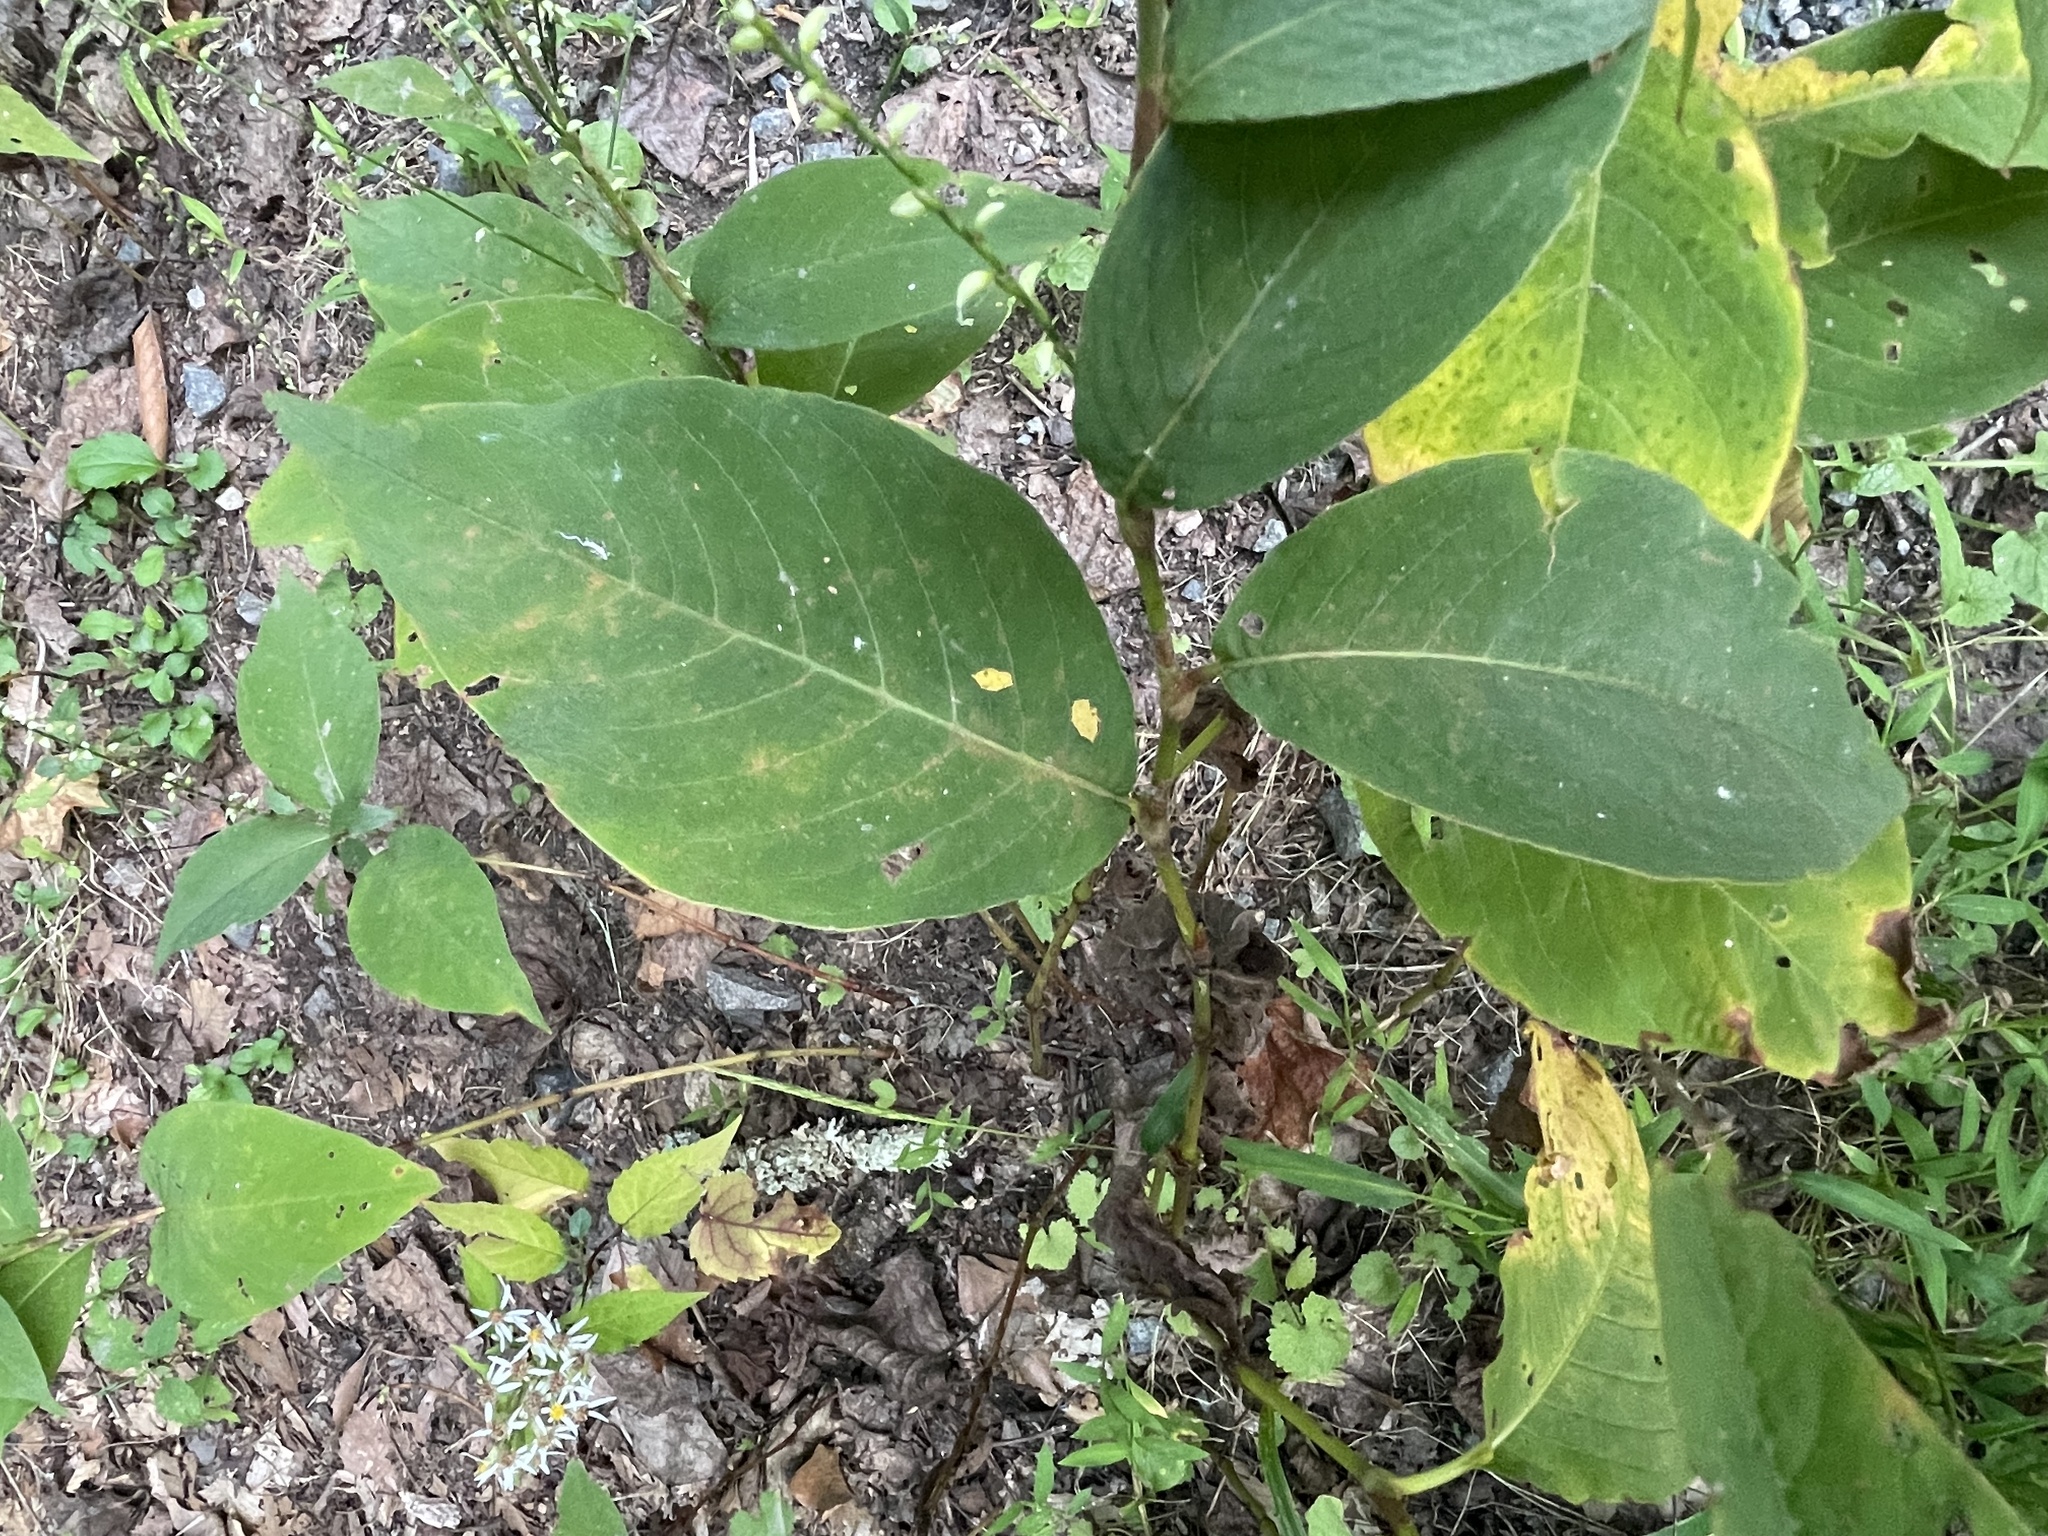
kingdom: Plantae
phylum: Tracheophyta
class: Magnoliopsida
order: Caryophyllales
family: Polygonaceae
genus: Persicaria
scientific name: Persicaria virginiana
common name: Jumpseed
